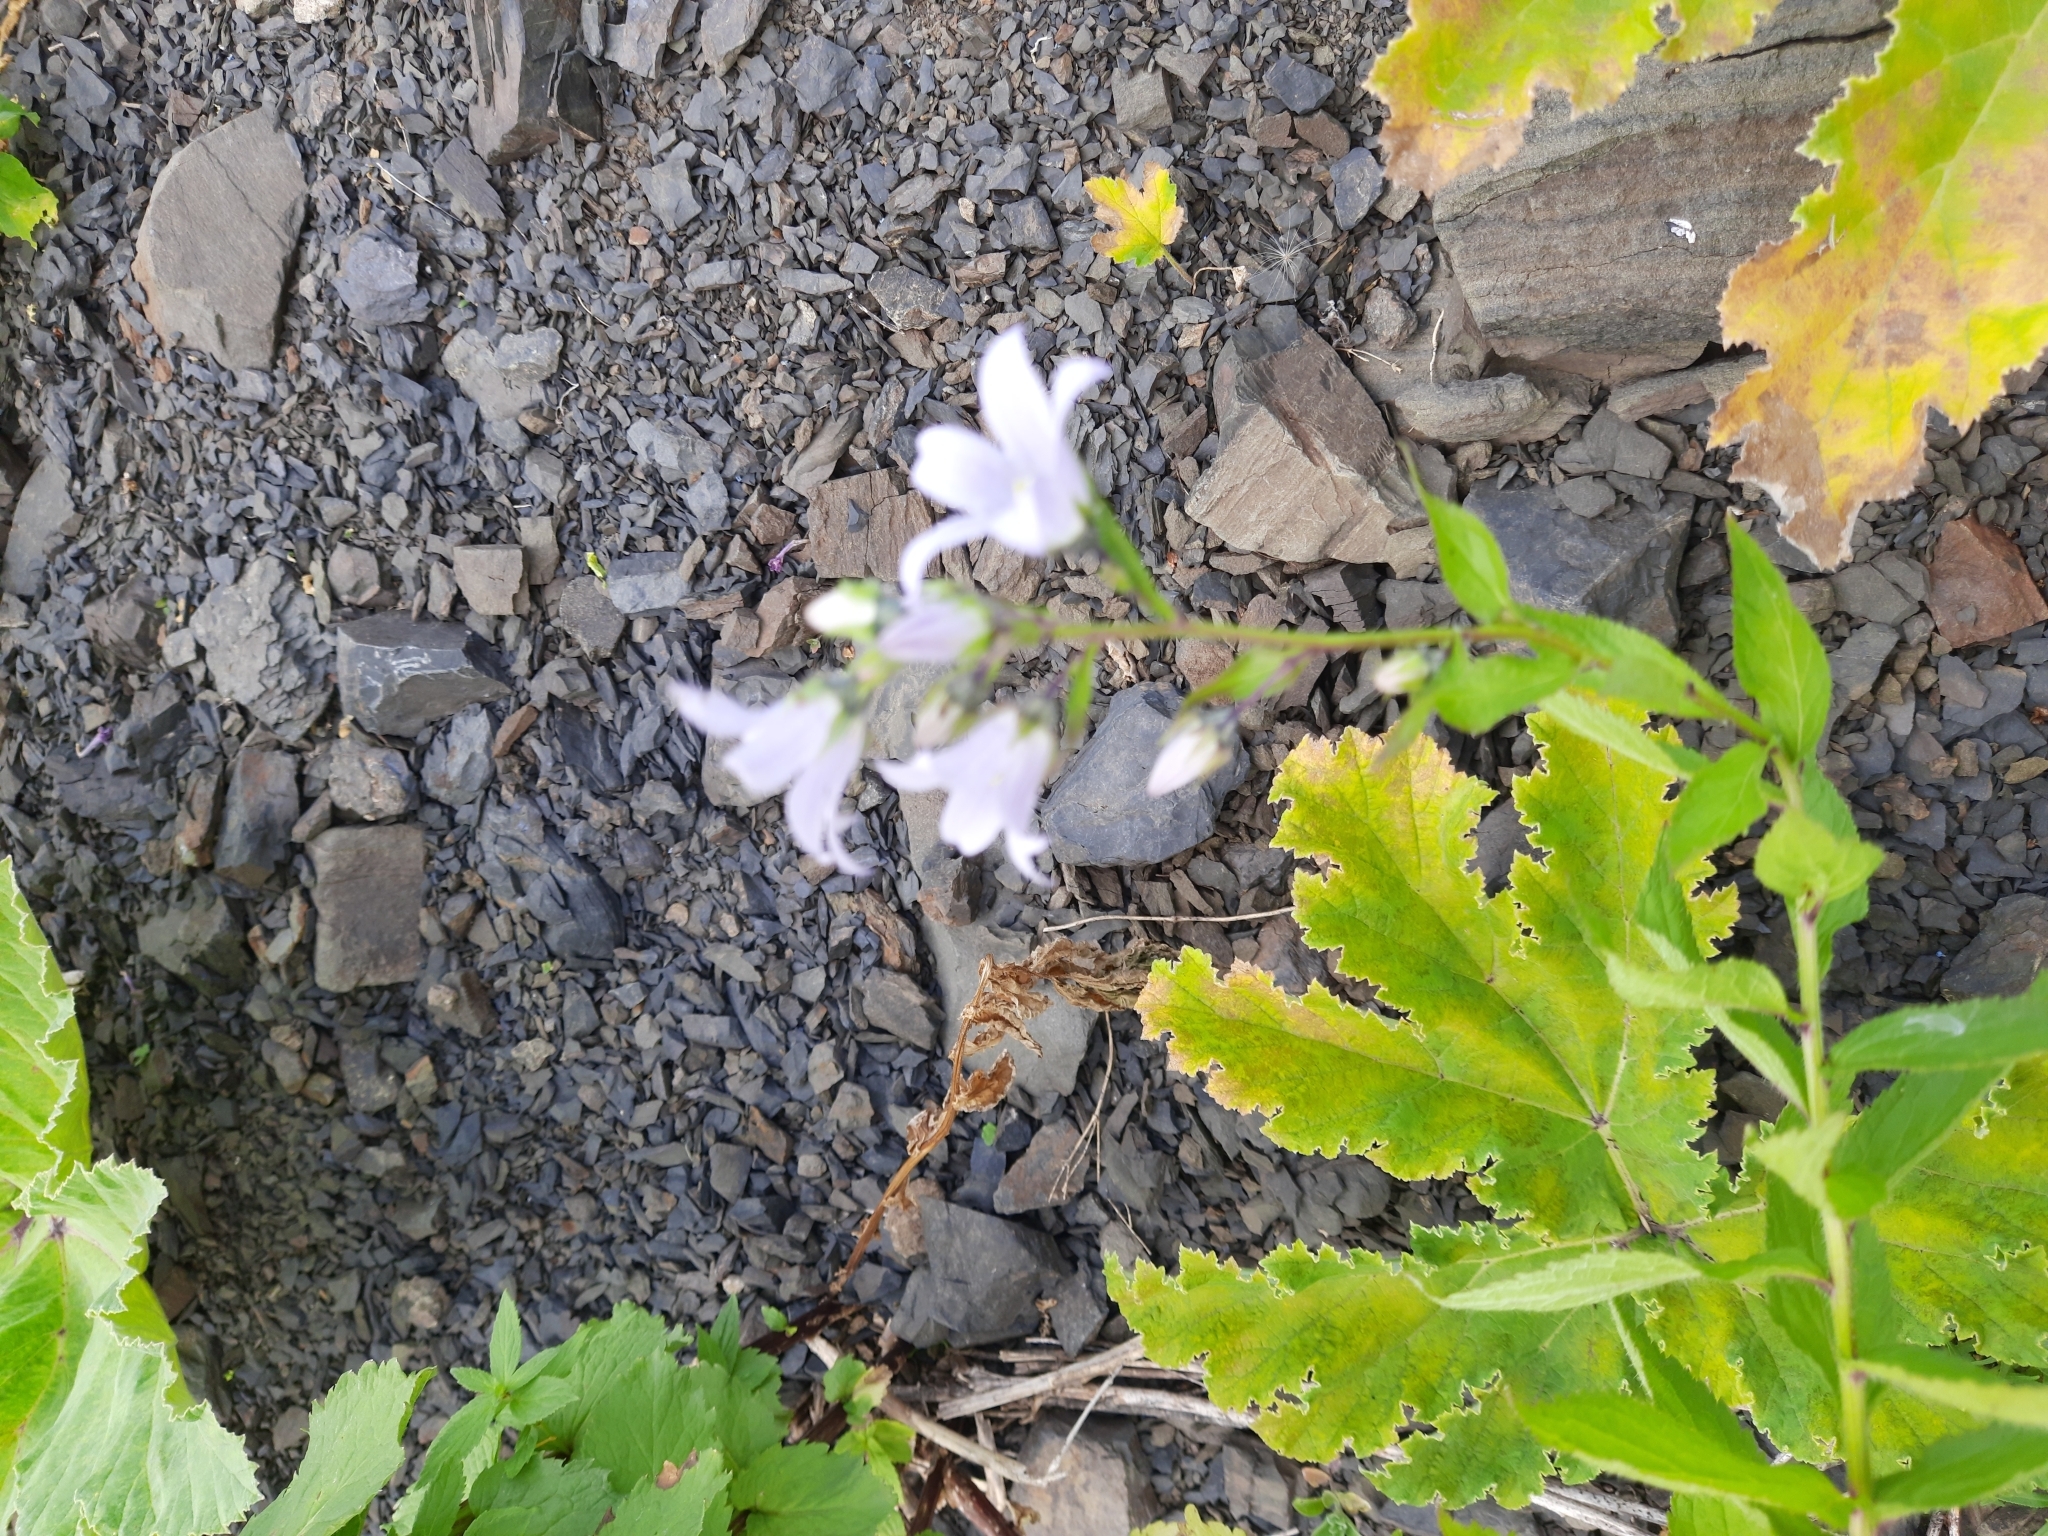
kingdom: Plantae
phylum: Tracheophyta
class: Magnoliopsida
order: Asterales
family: Campanulaceae
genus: Campanula
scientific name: Campanula lactiflora
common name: Milky bellflower
